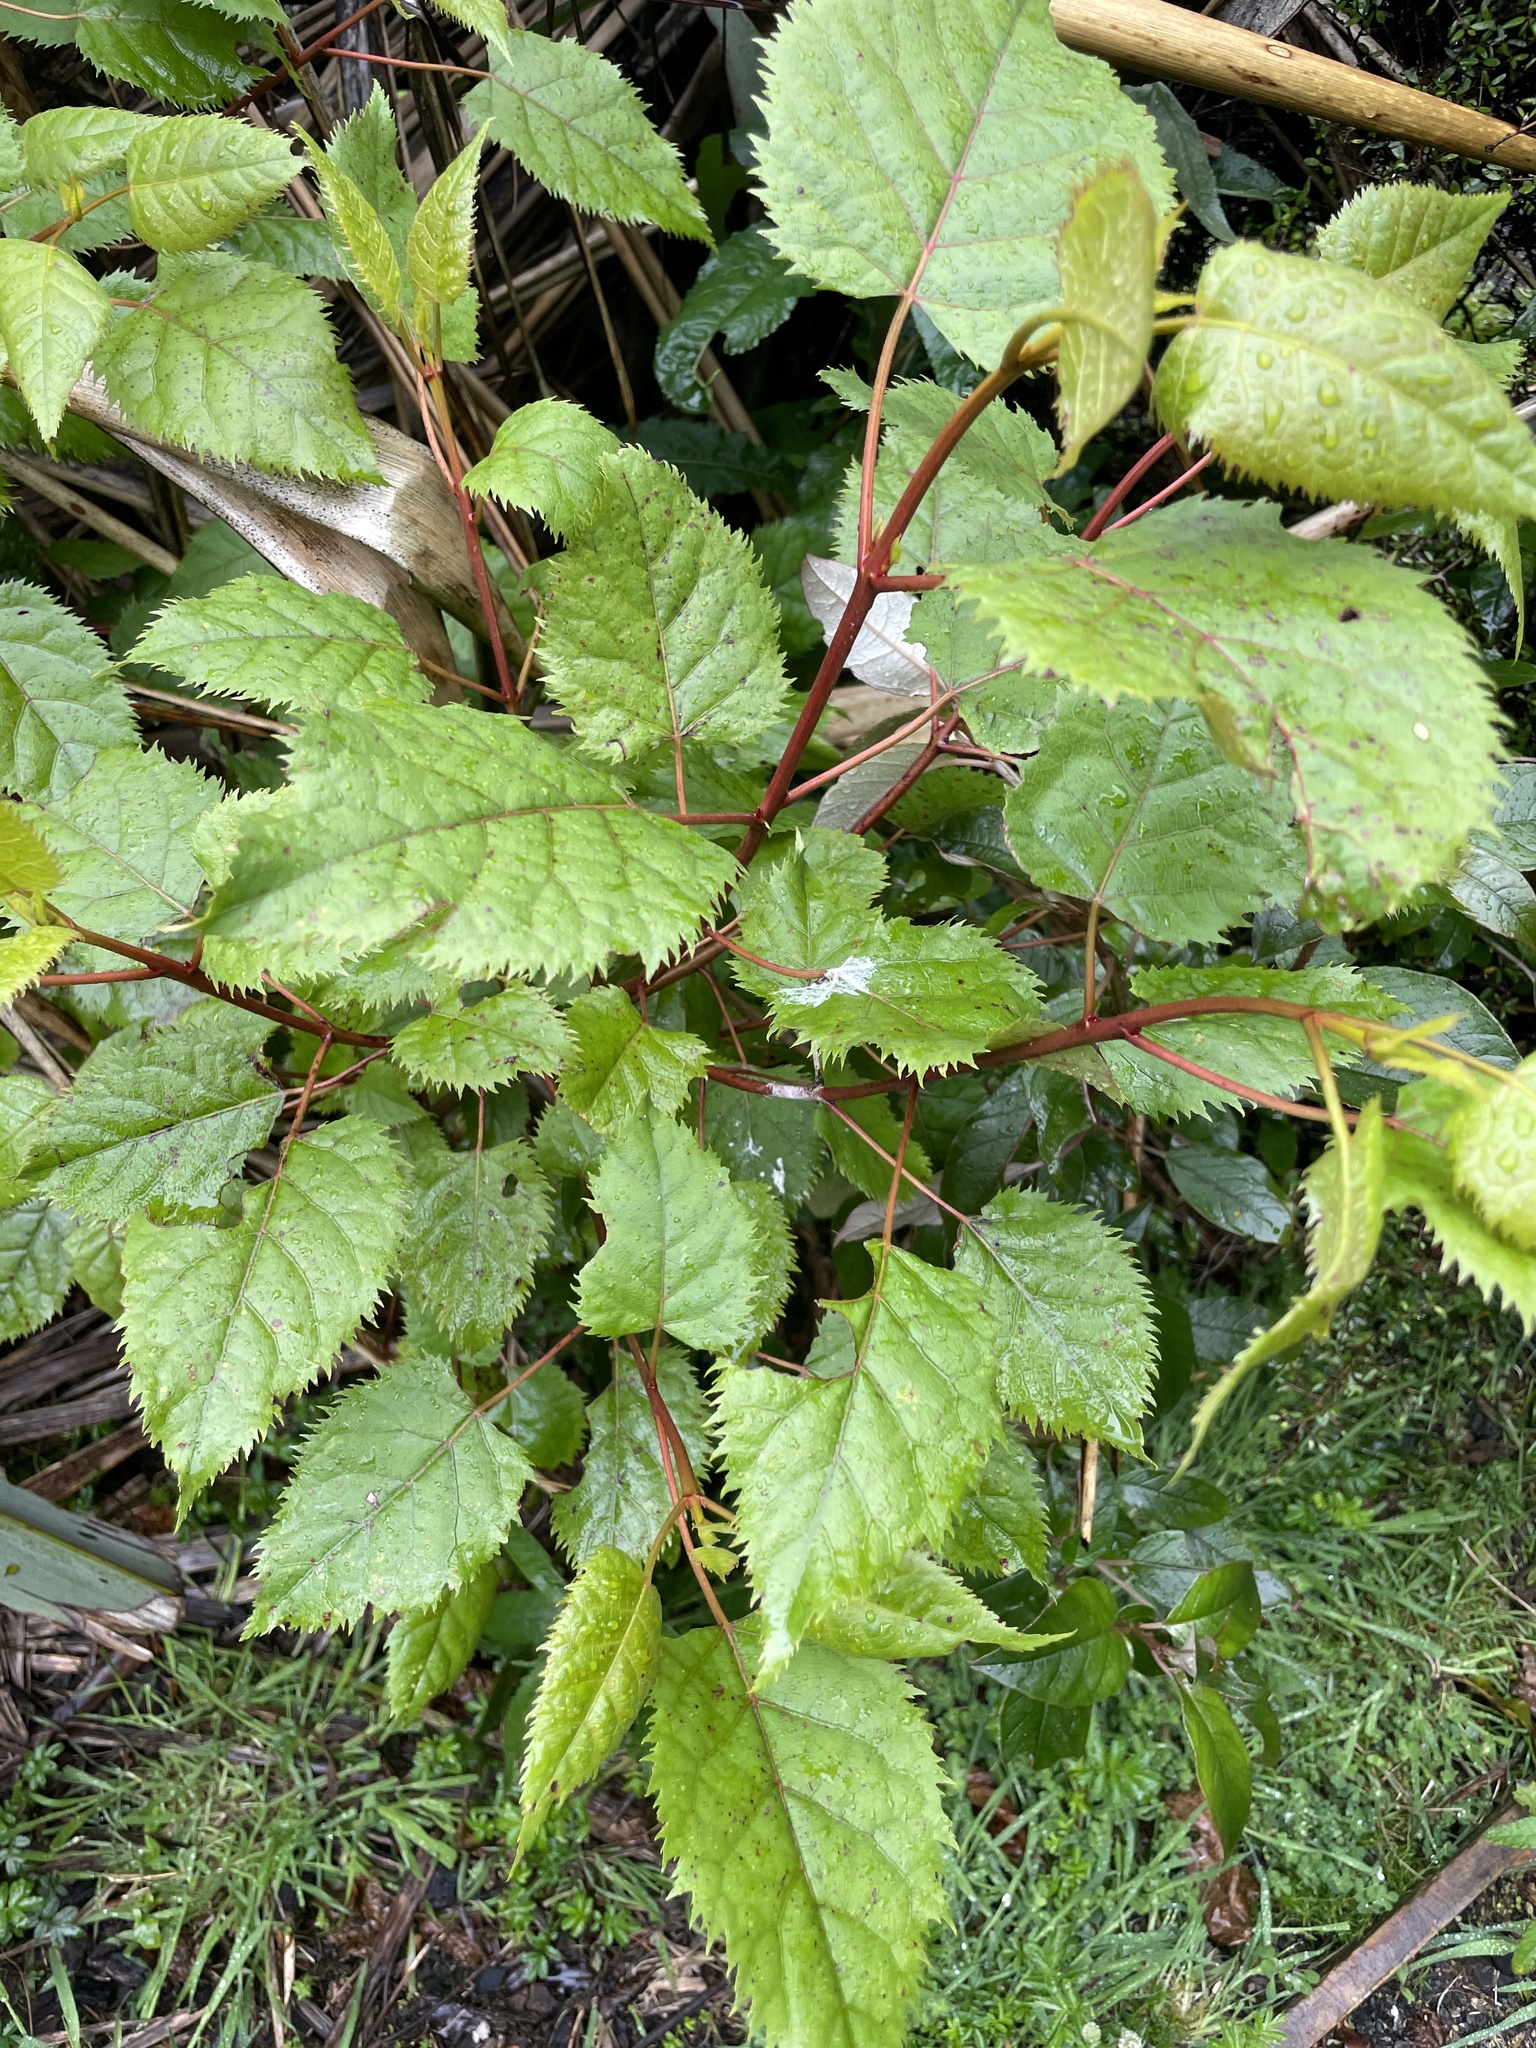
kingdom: Plantae
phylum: Tracheophyta
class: Magnoliopsida
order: Oxalidales
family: Elaeocarpaceae
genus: Aristotelia
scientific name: Aristotelia serrata
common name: New zealand wineberry
